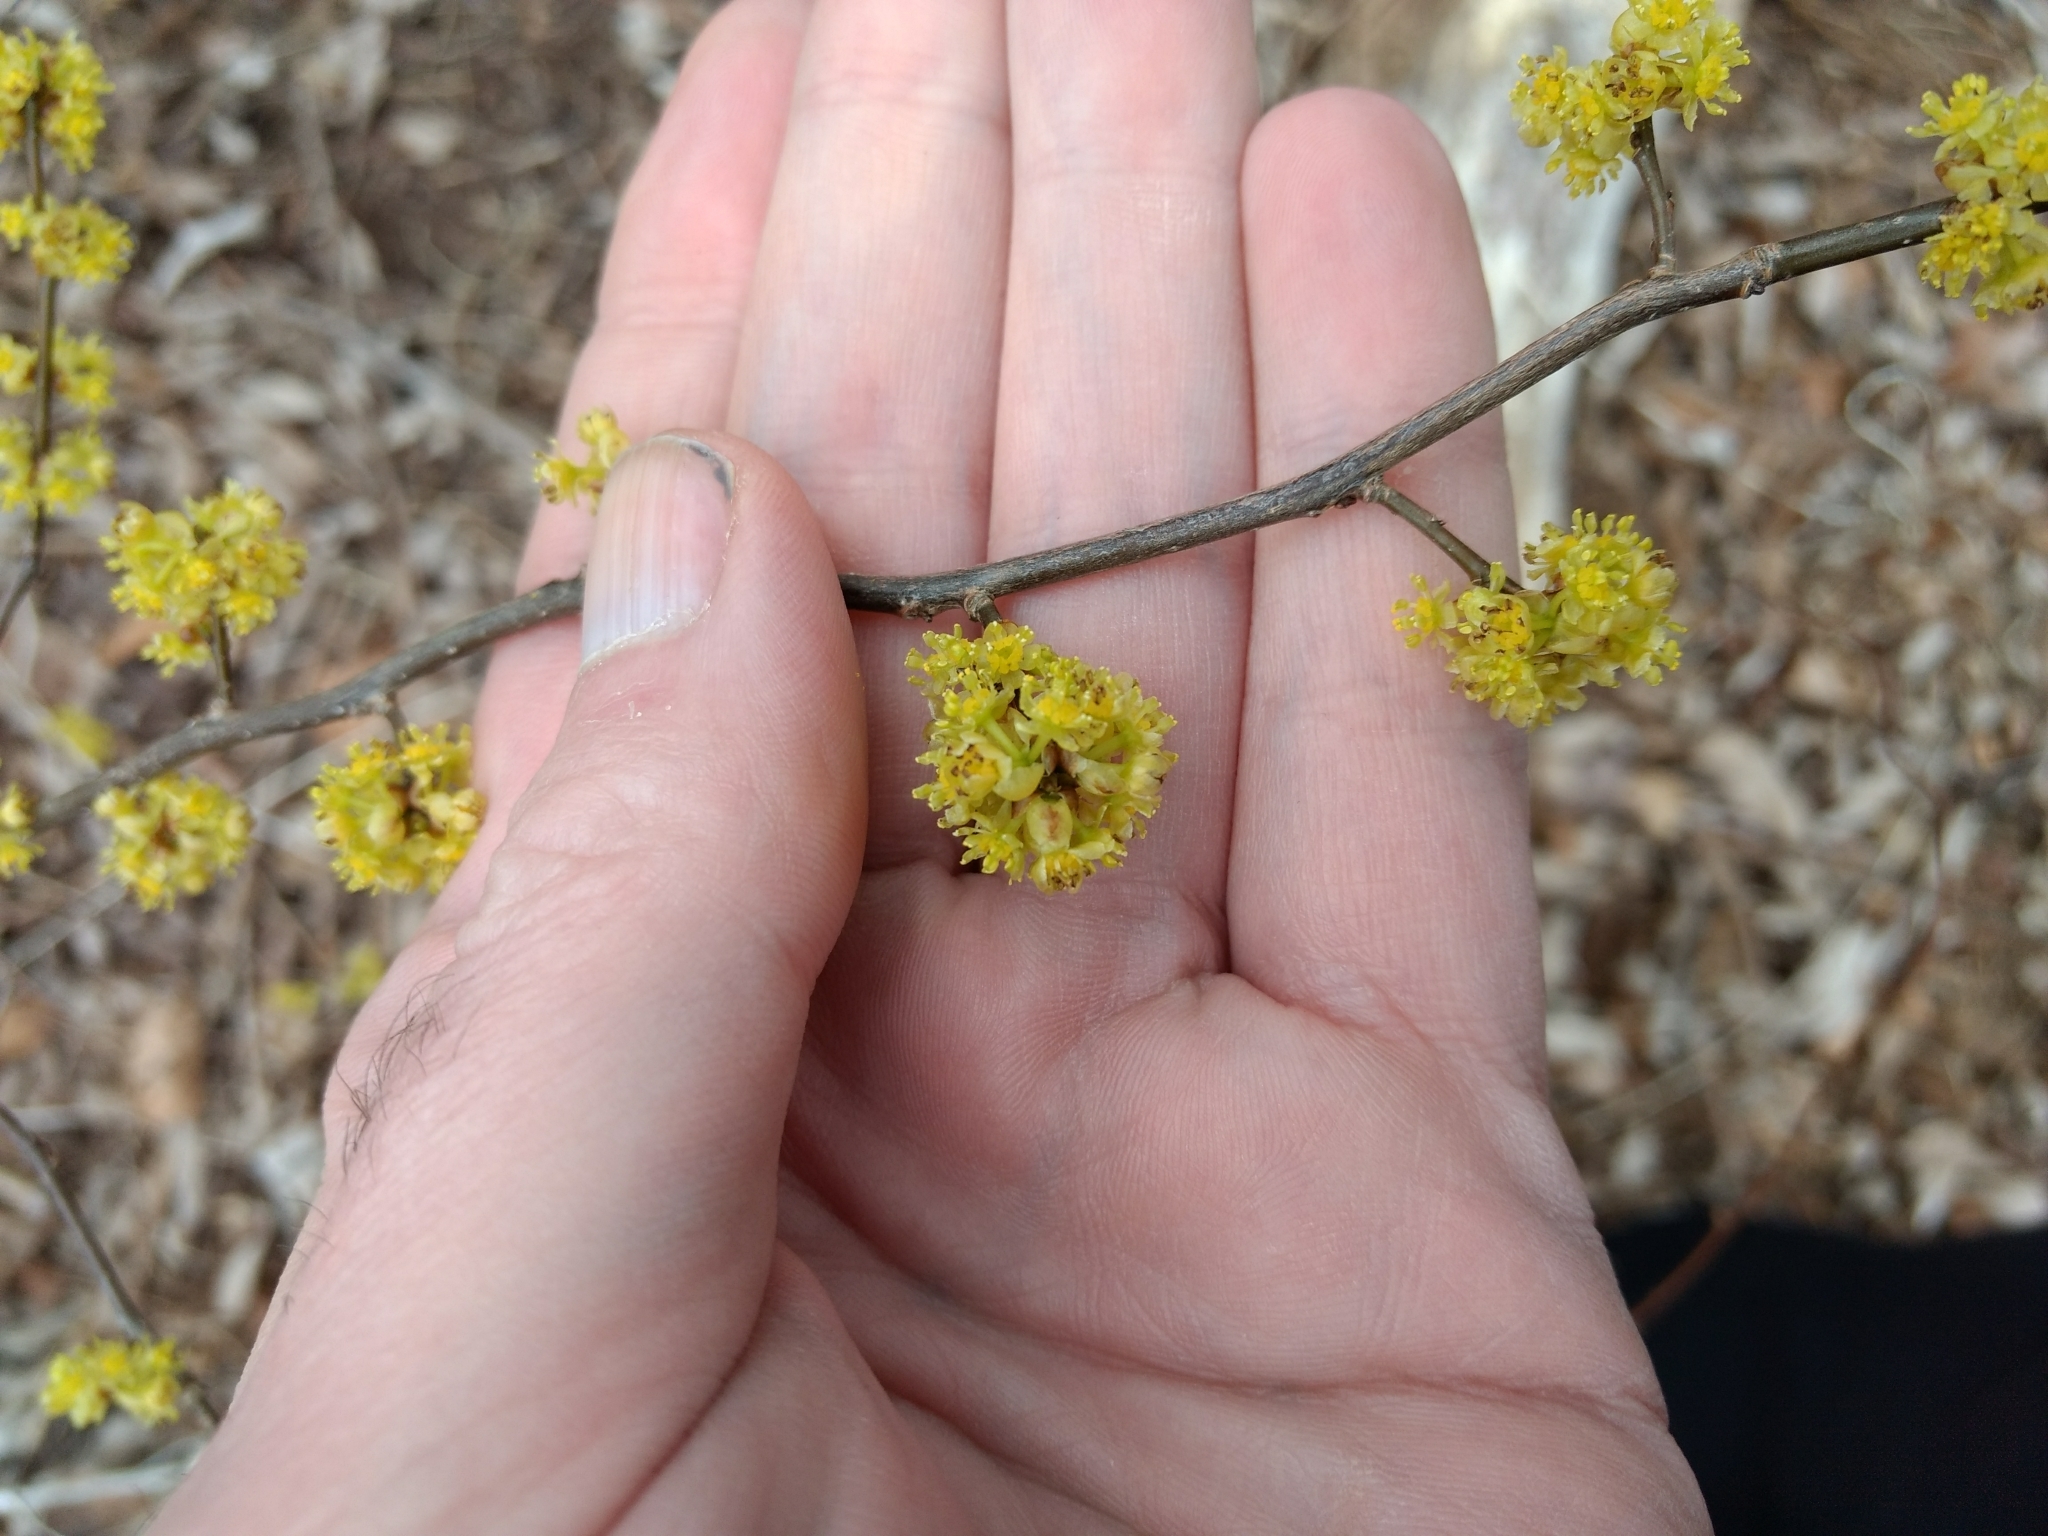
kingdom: Plantae
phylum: Tracheophyta
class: Magnoliopsida
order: Laurales
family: Lauraceae
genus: Lindera
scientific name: Lindera benzoin
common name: Spicebush
